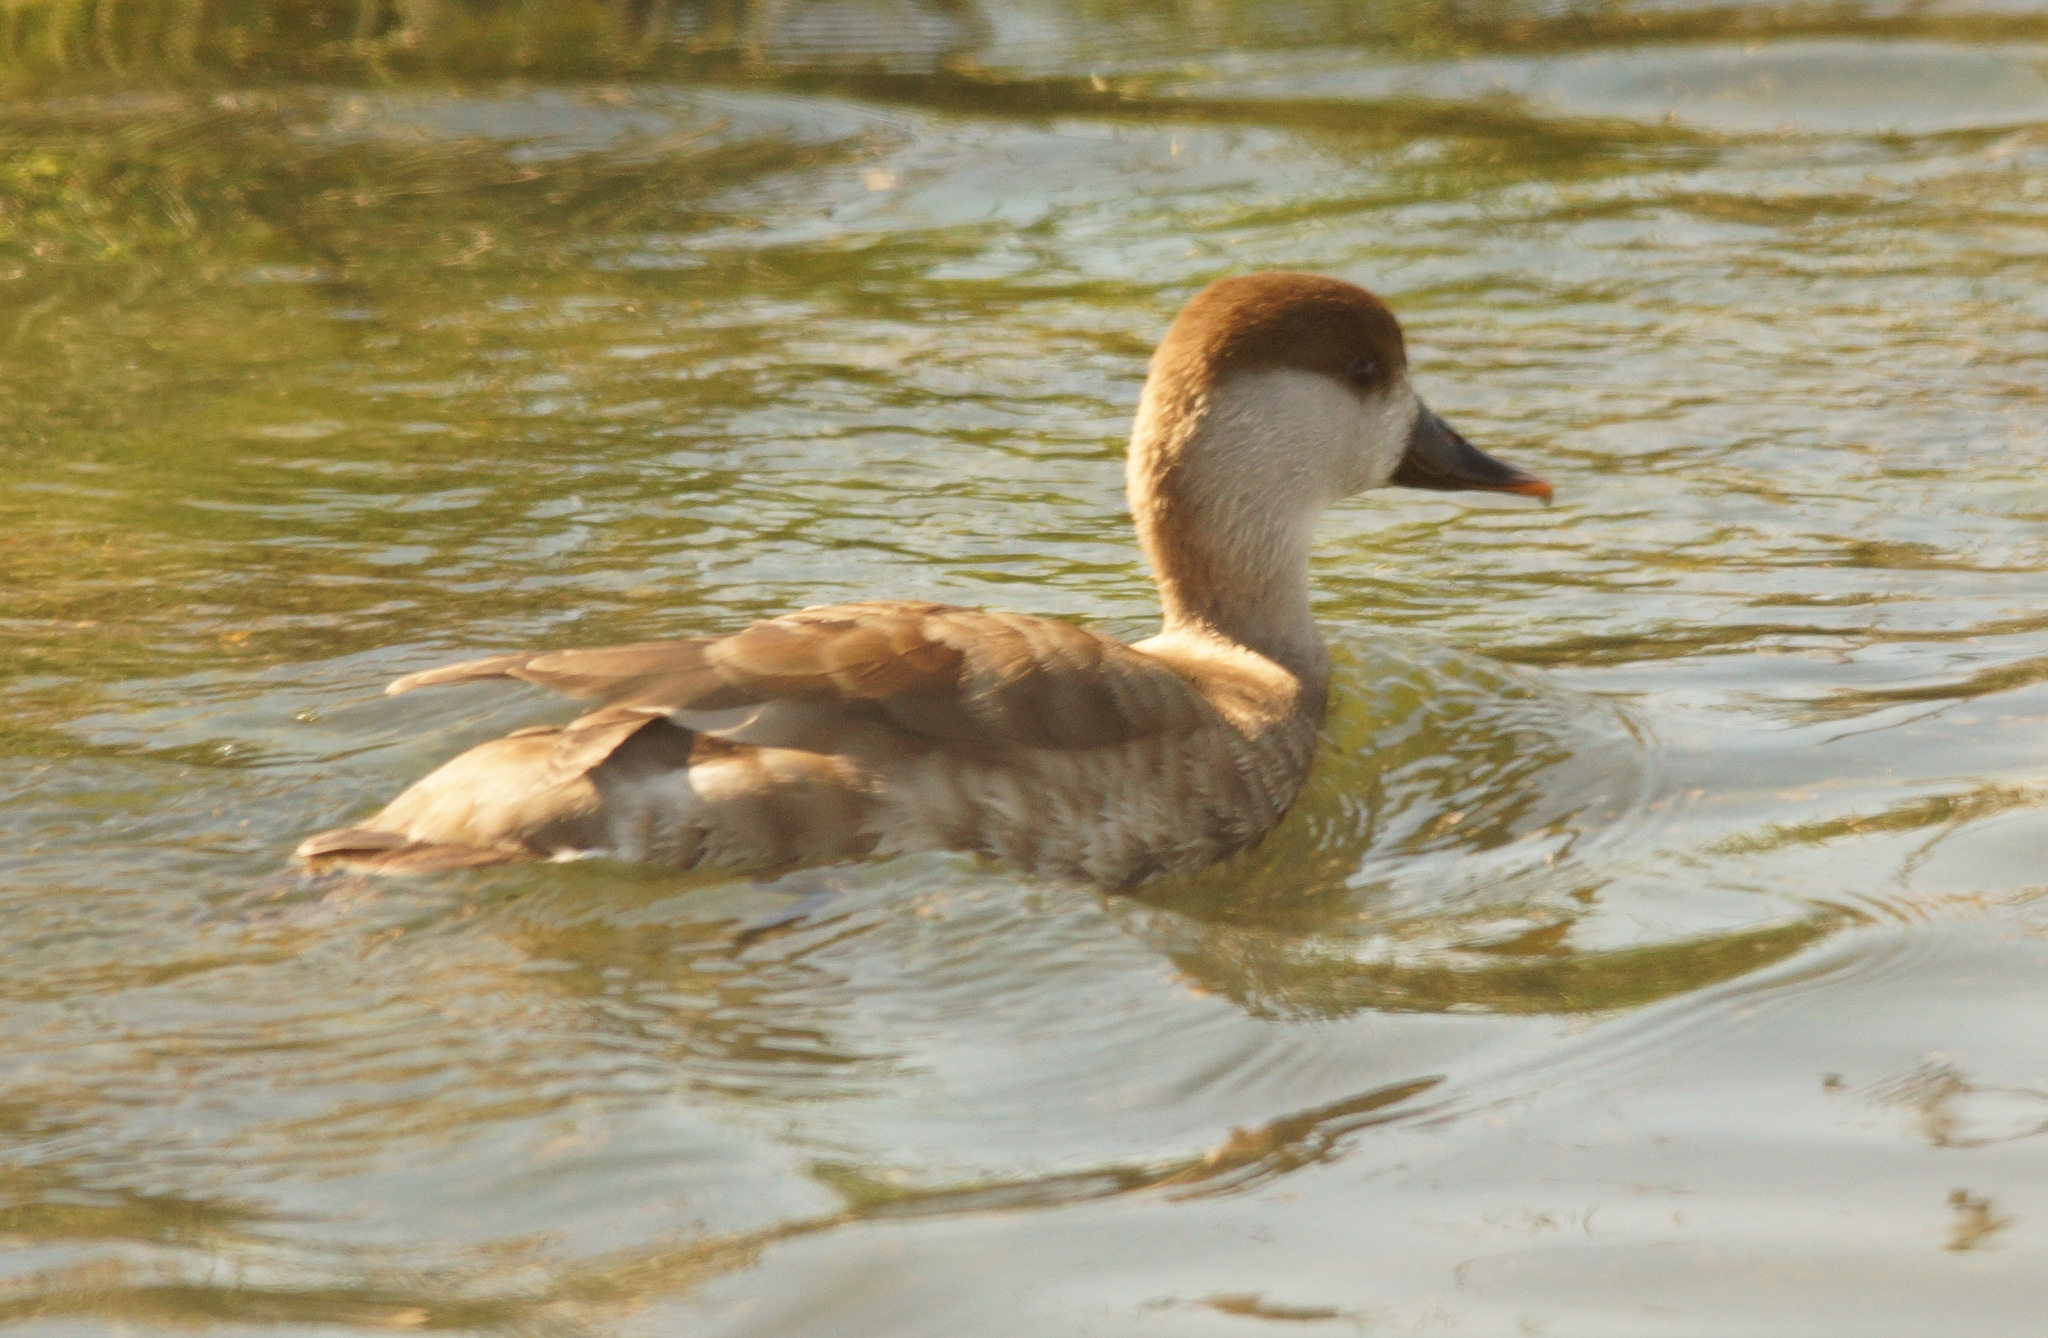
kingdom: Animalia
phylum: Chordata
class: Aves
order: Anseriformes
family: Anatidae
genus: Netta
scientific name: Netta rufina
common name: Red-crested pochard
